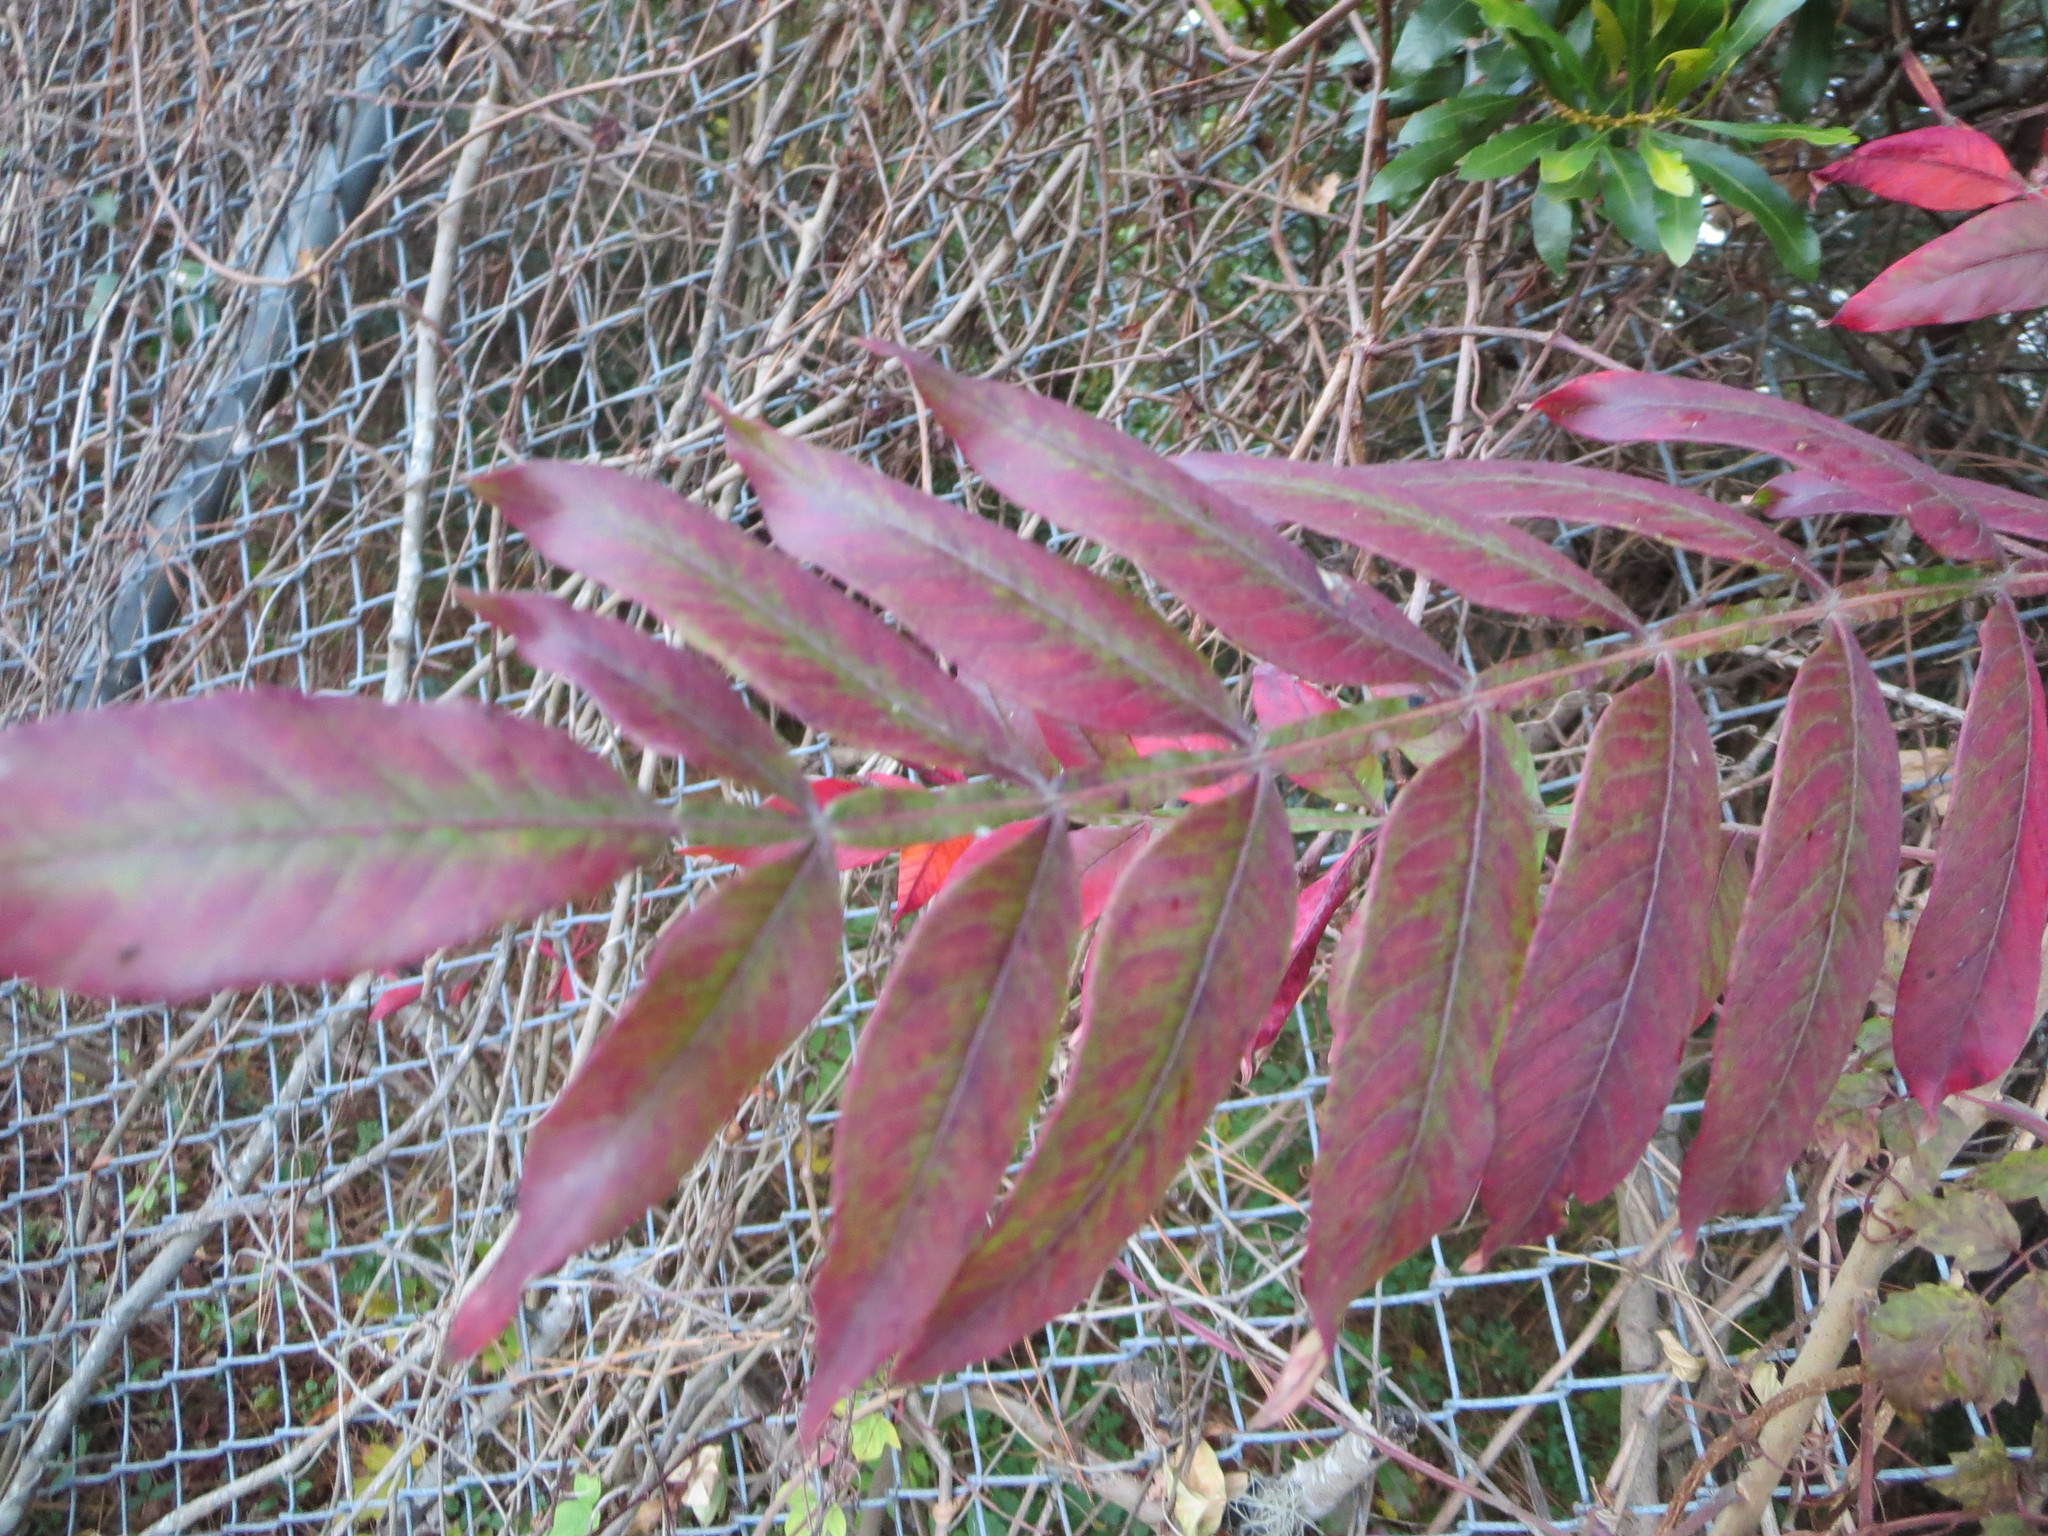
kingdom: Plantae
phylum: Tracheophyta
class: Magnoliopsida
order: Sapindales
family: Anacardiaceae
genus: Rhus
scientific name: Rhus copallina
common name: Shining sumac
